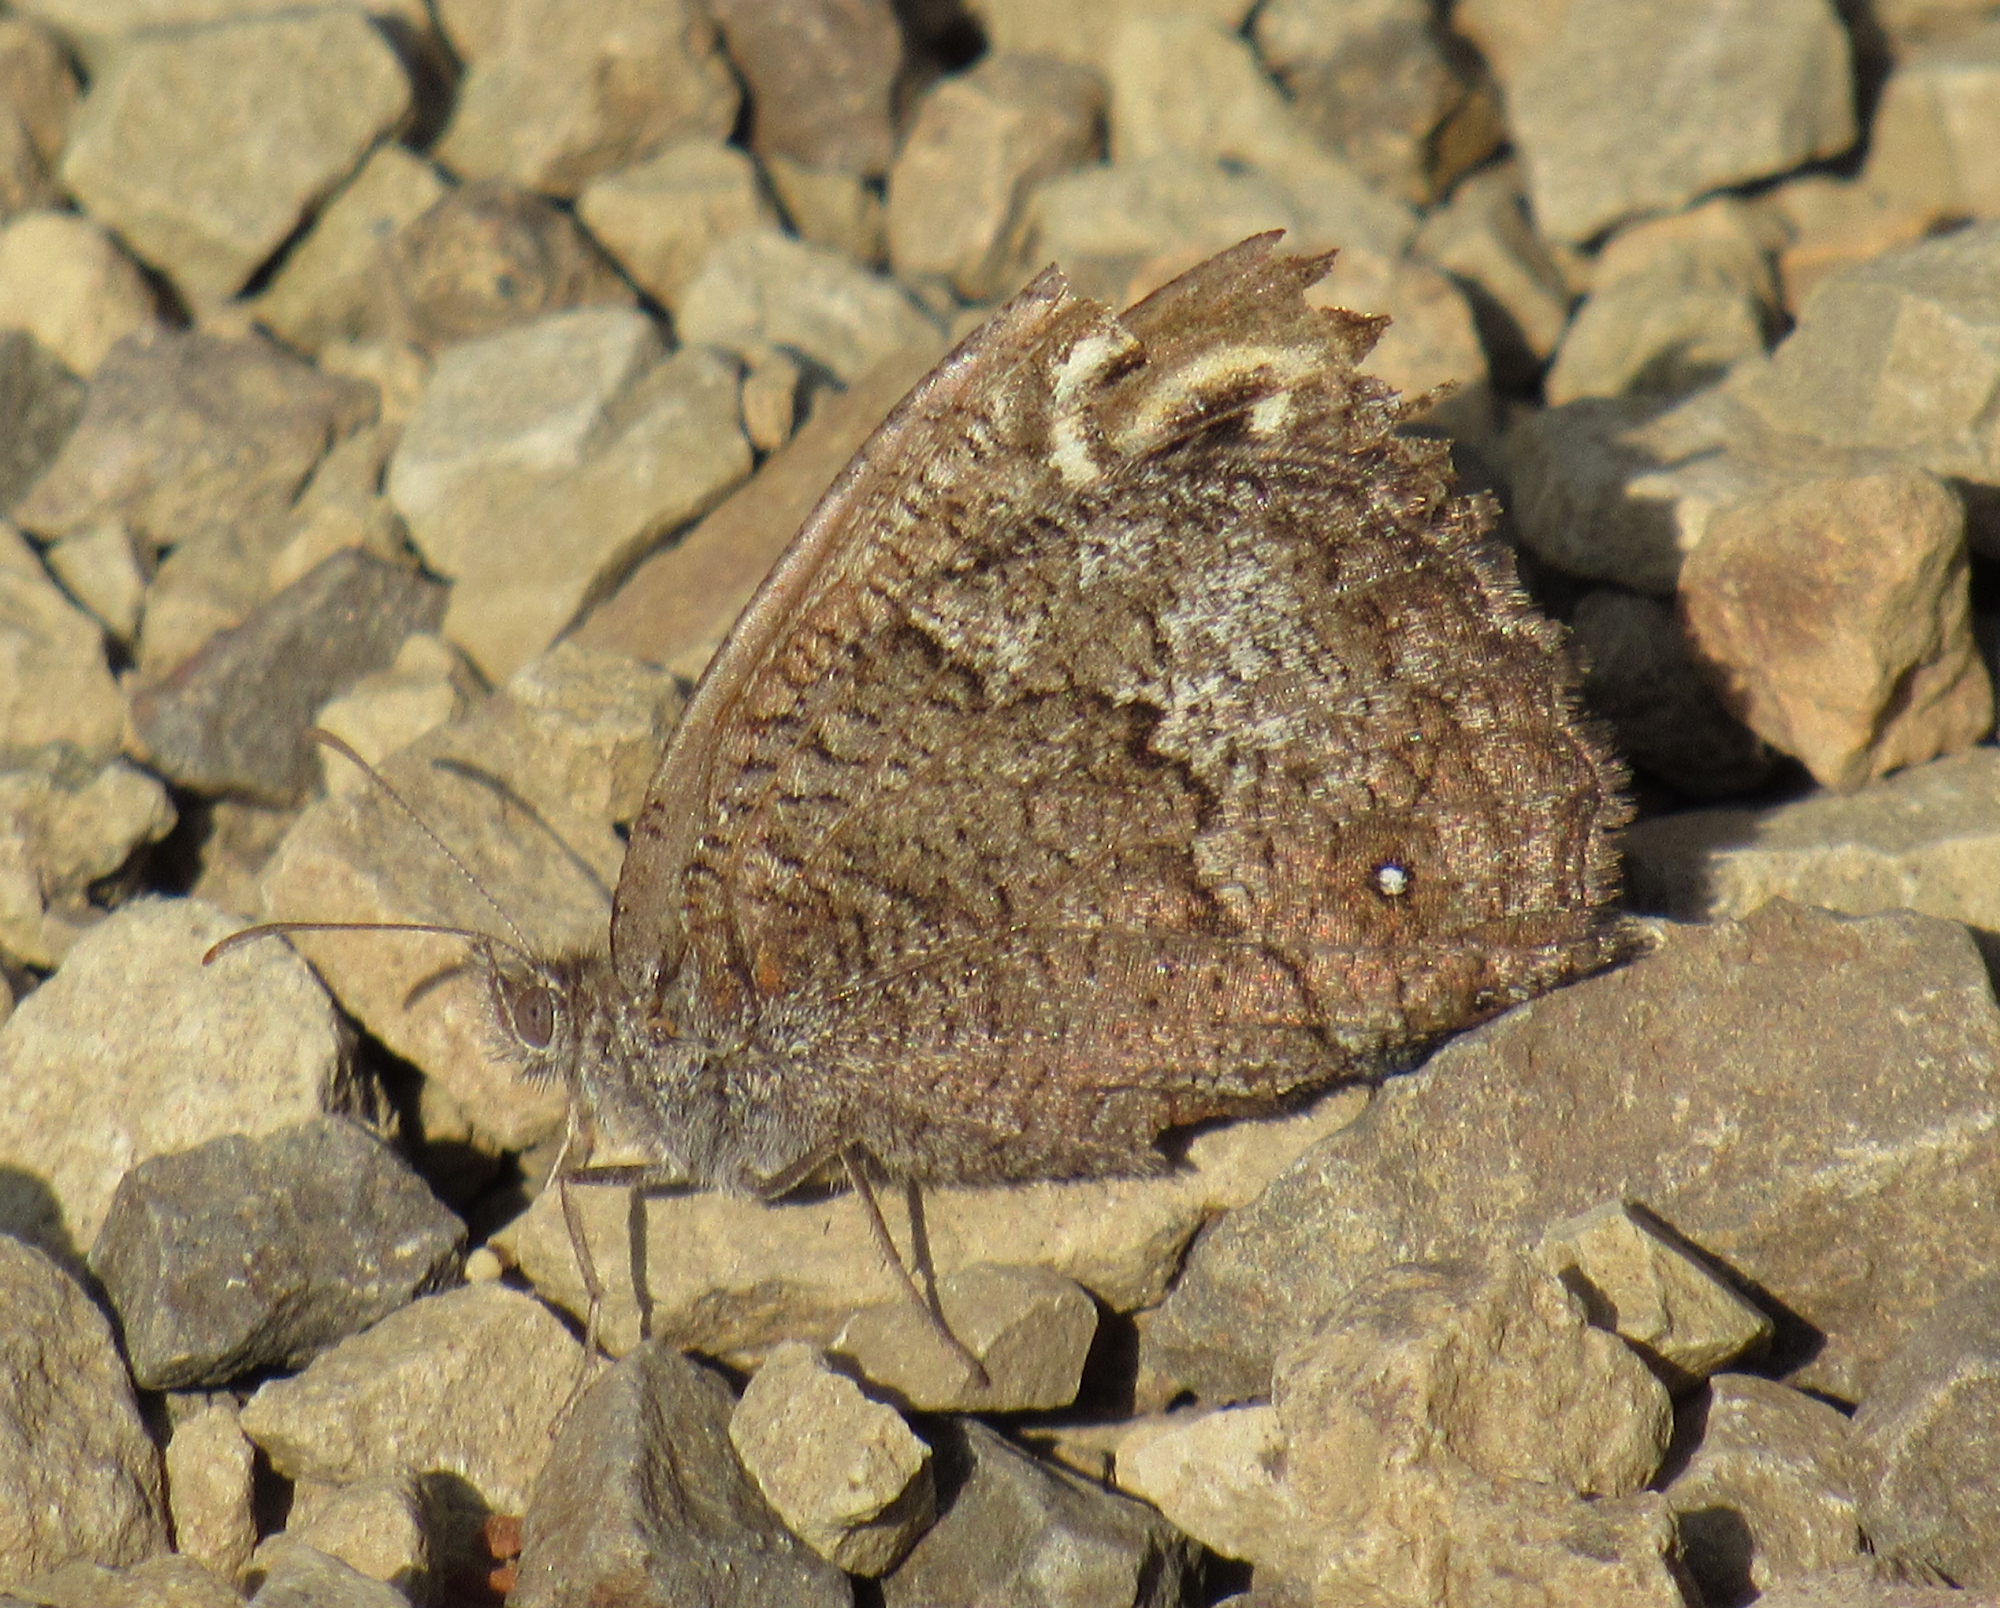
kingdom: Animalia
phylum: Arthropoda
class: Insecta
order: Lepidoptera
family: Nymphalidae
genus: Cercyonis
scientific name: Cercyonis pegala
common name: Common wood-nymph
